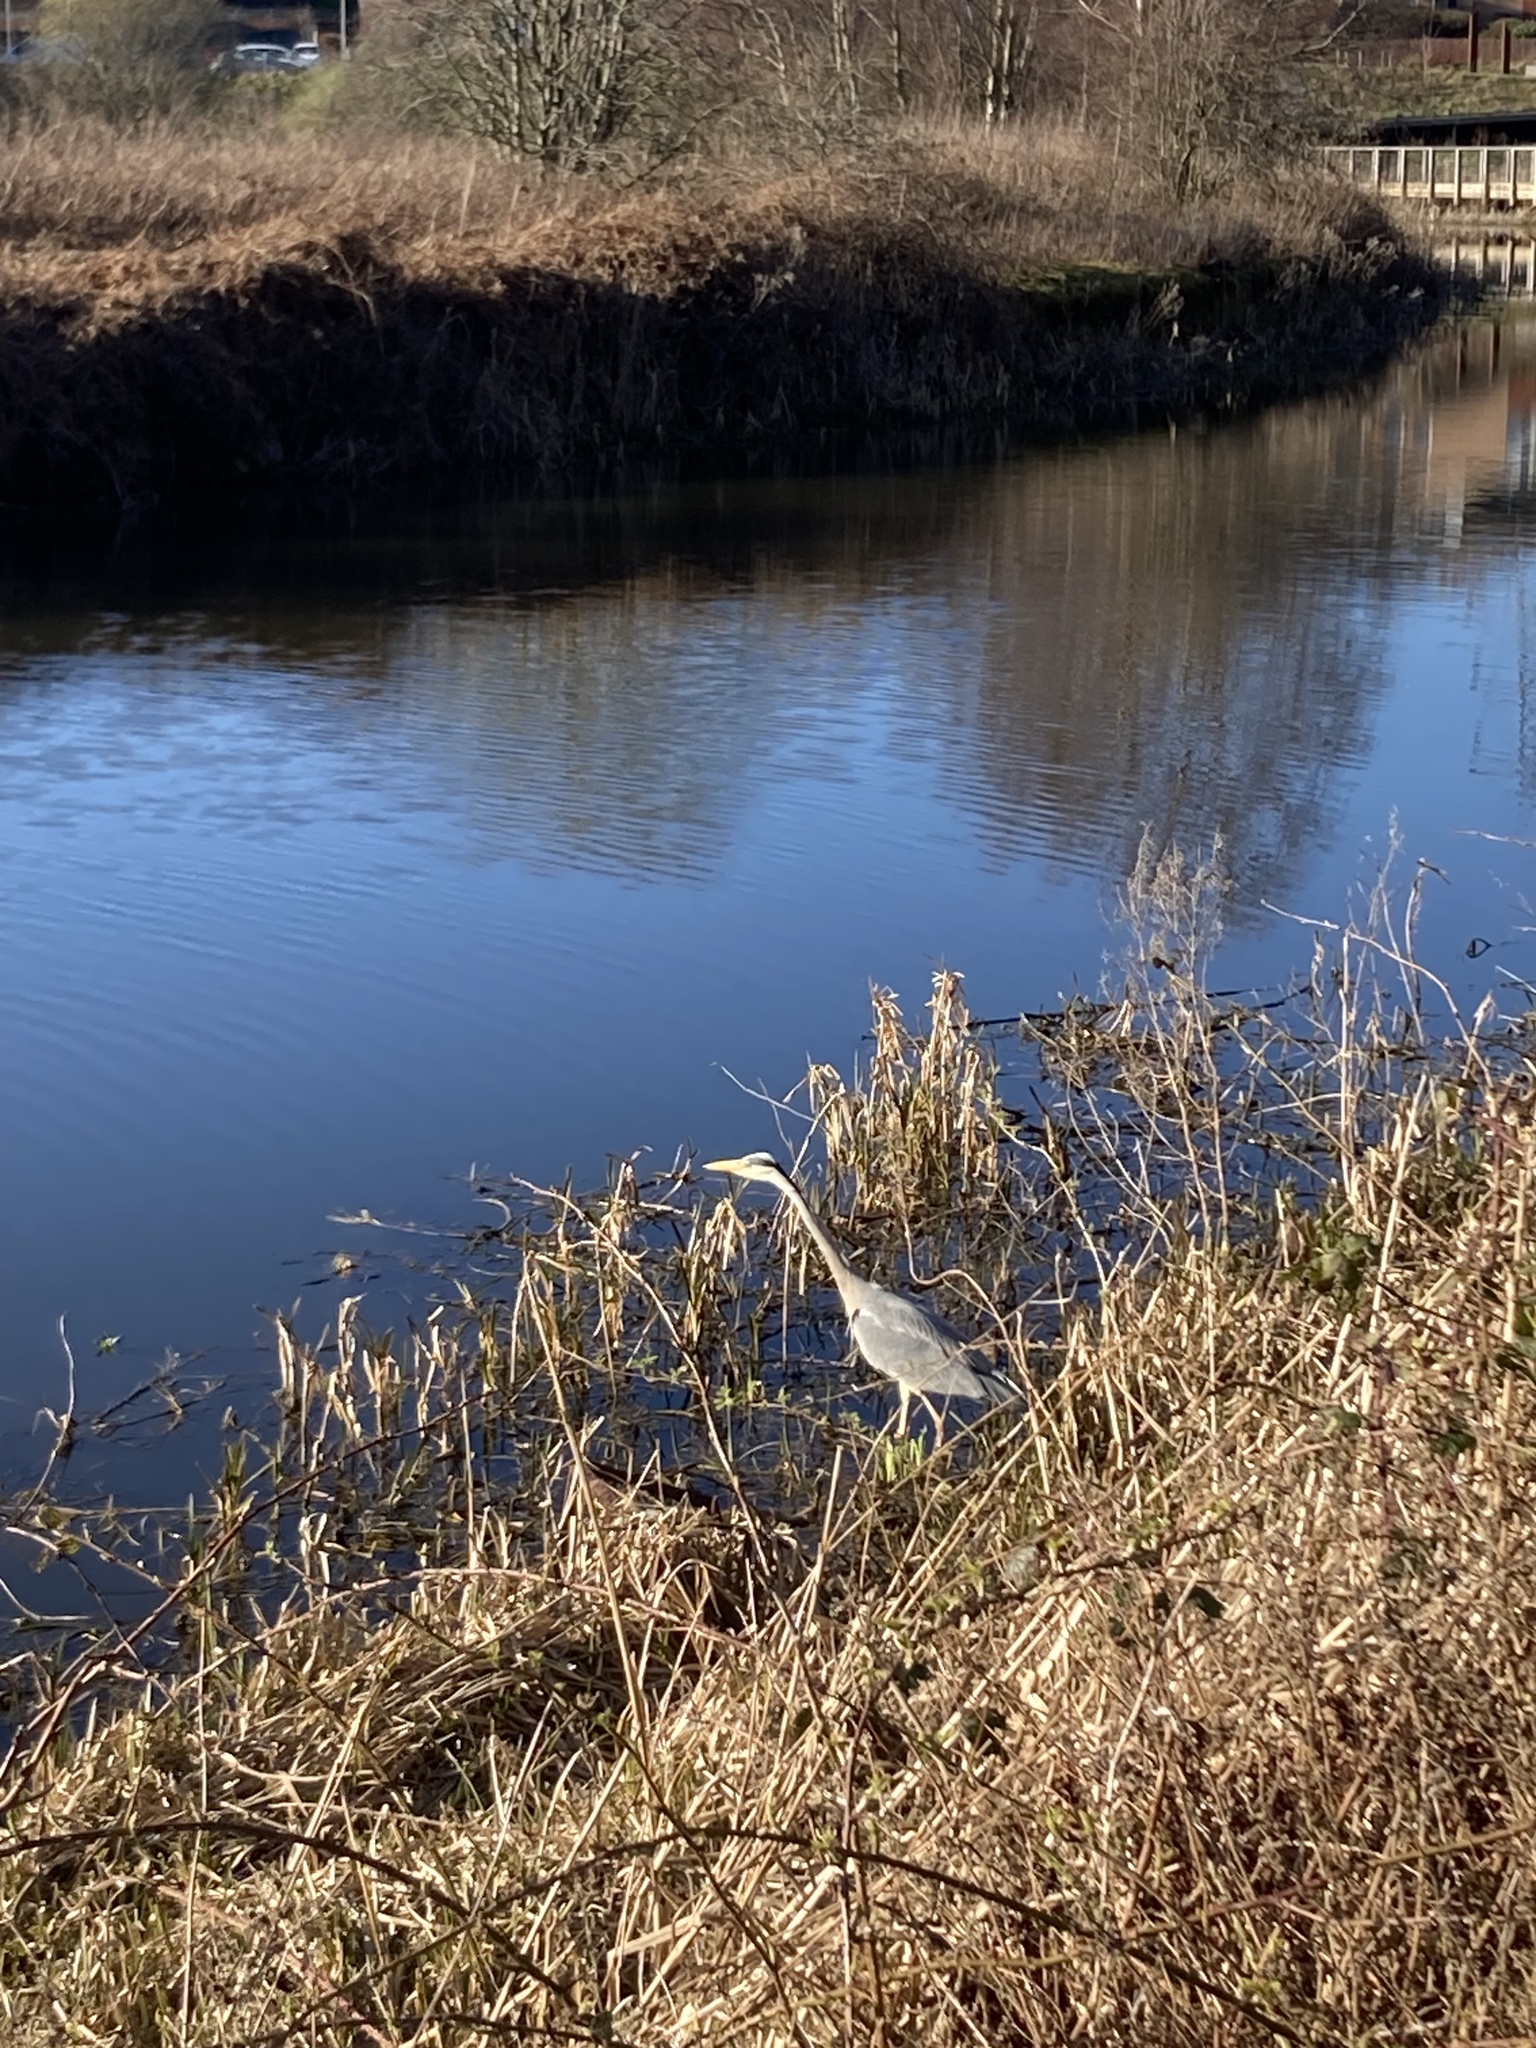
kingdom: Animalia
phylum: Chordata
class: Aves
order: Pelecaniformes
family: Ardeidae
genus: Ardea
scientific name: Ardea cinerea
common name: Grey heron
